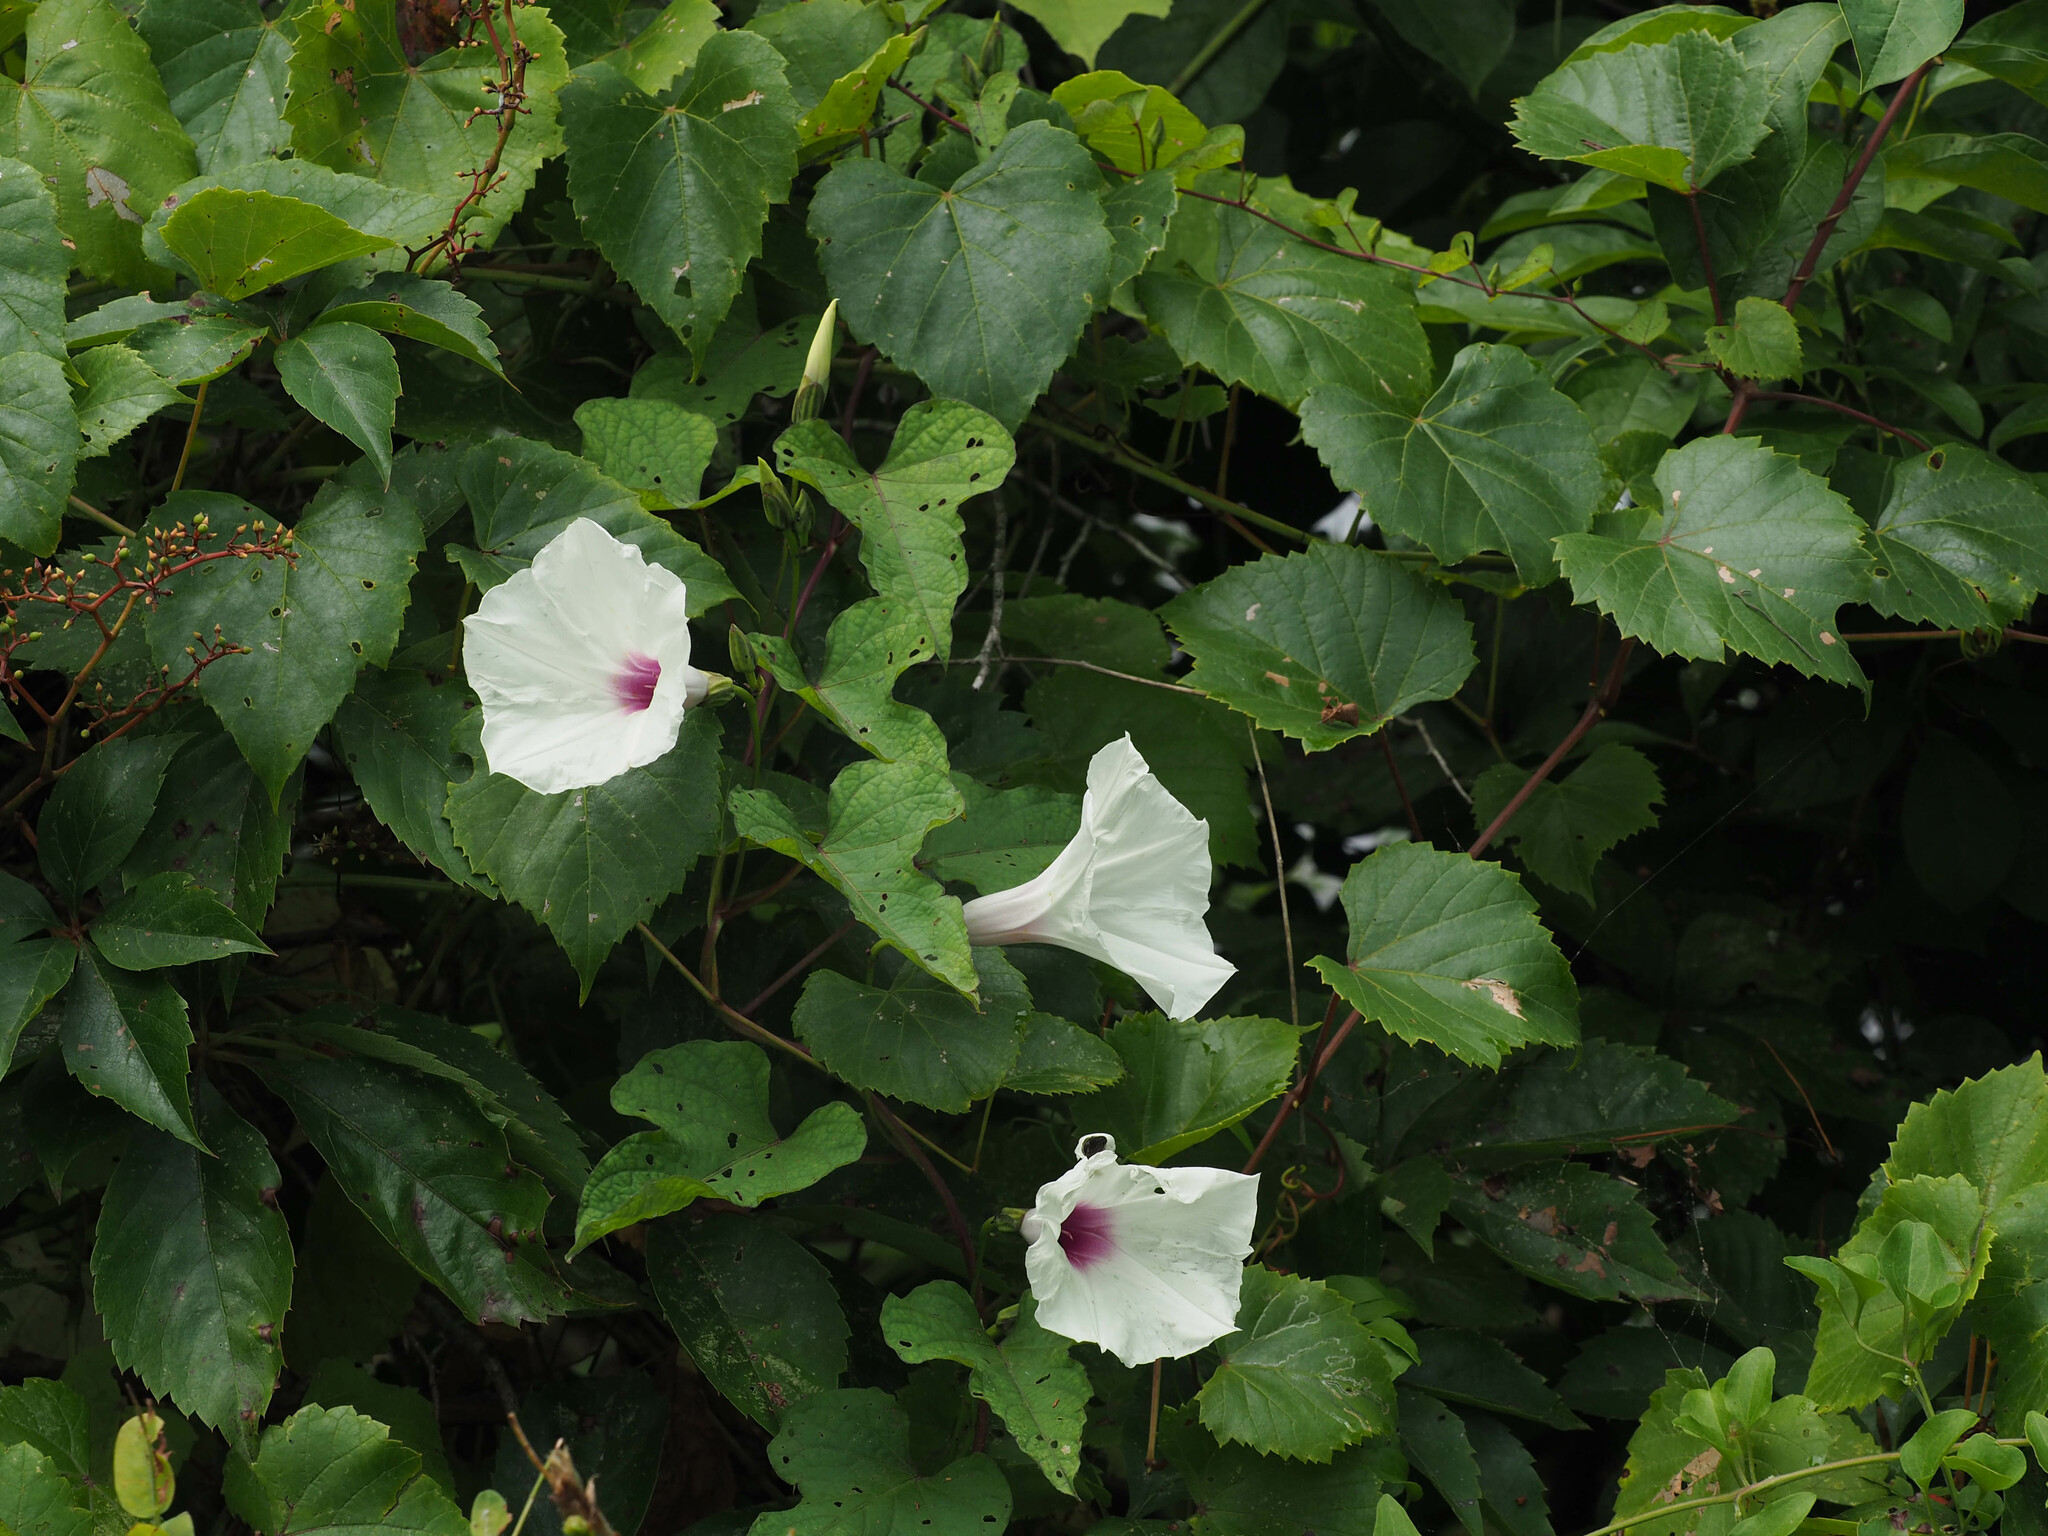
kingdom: Plantae
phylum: Tracheophyta
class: Magnoliopsida
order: Solanales
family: Convolvulaceae
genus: Ipomoea
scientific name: Ipomoea pandurata
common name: Man-of-the-earth
